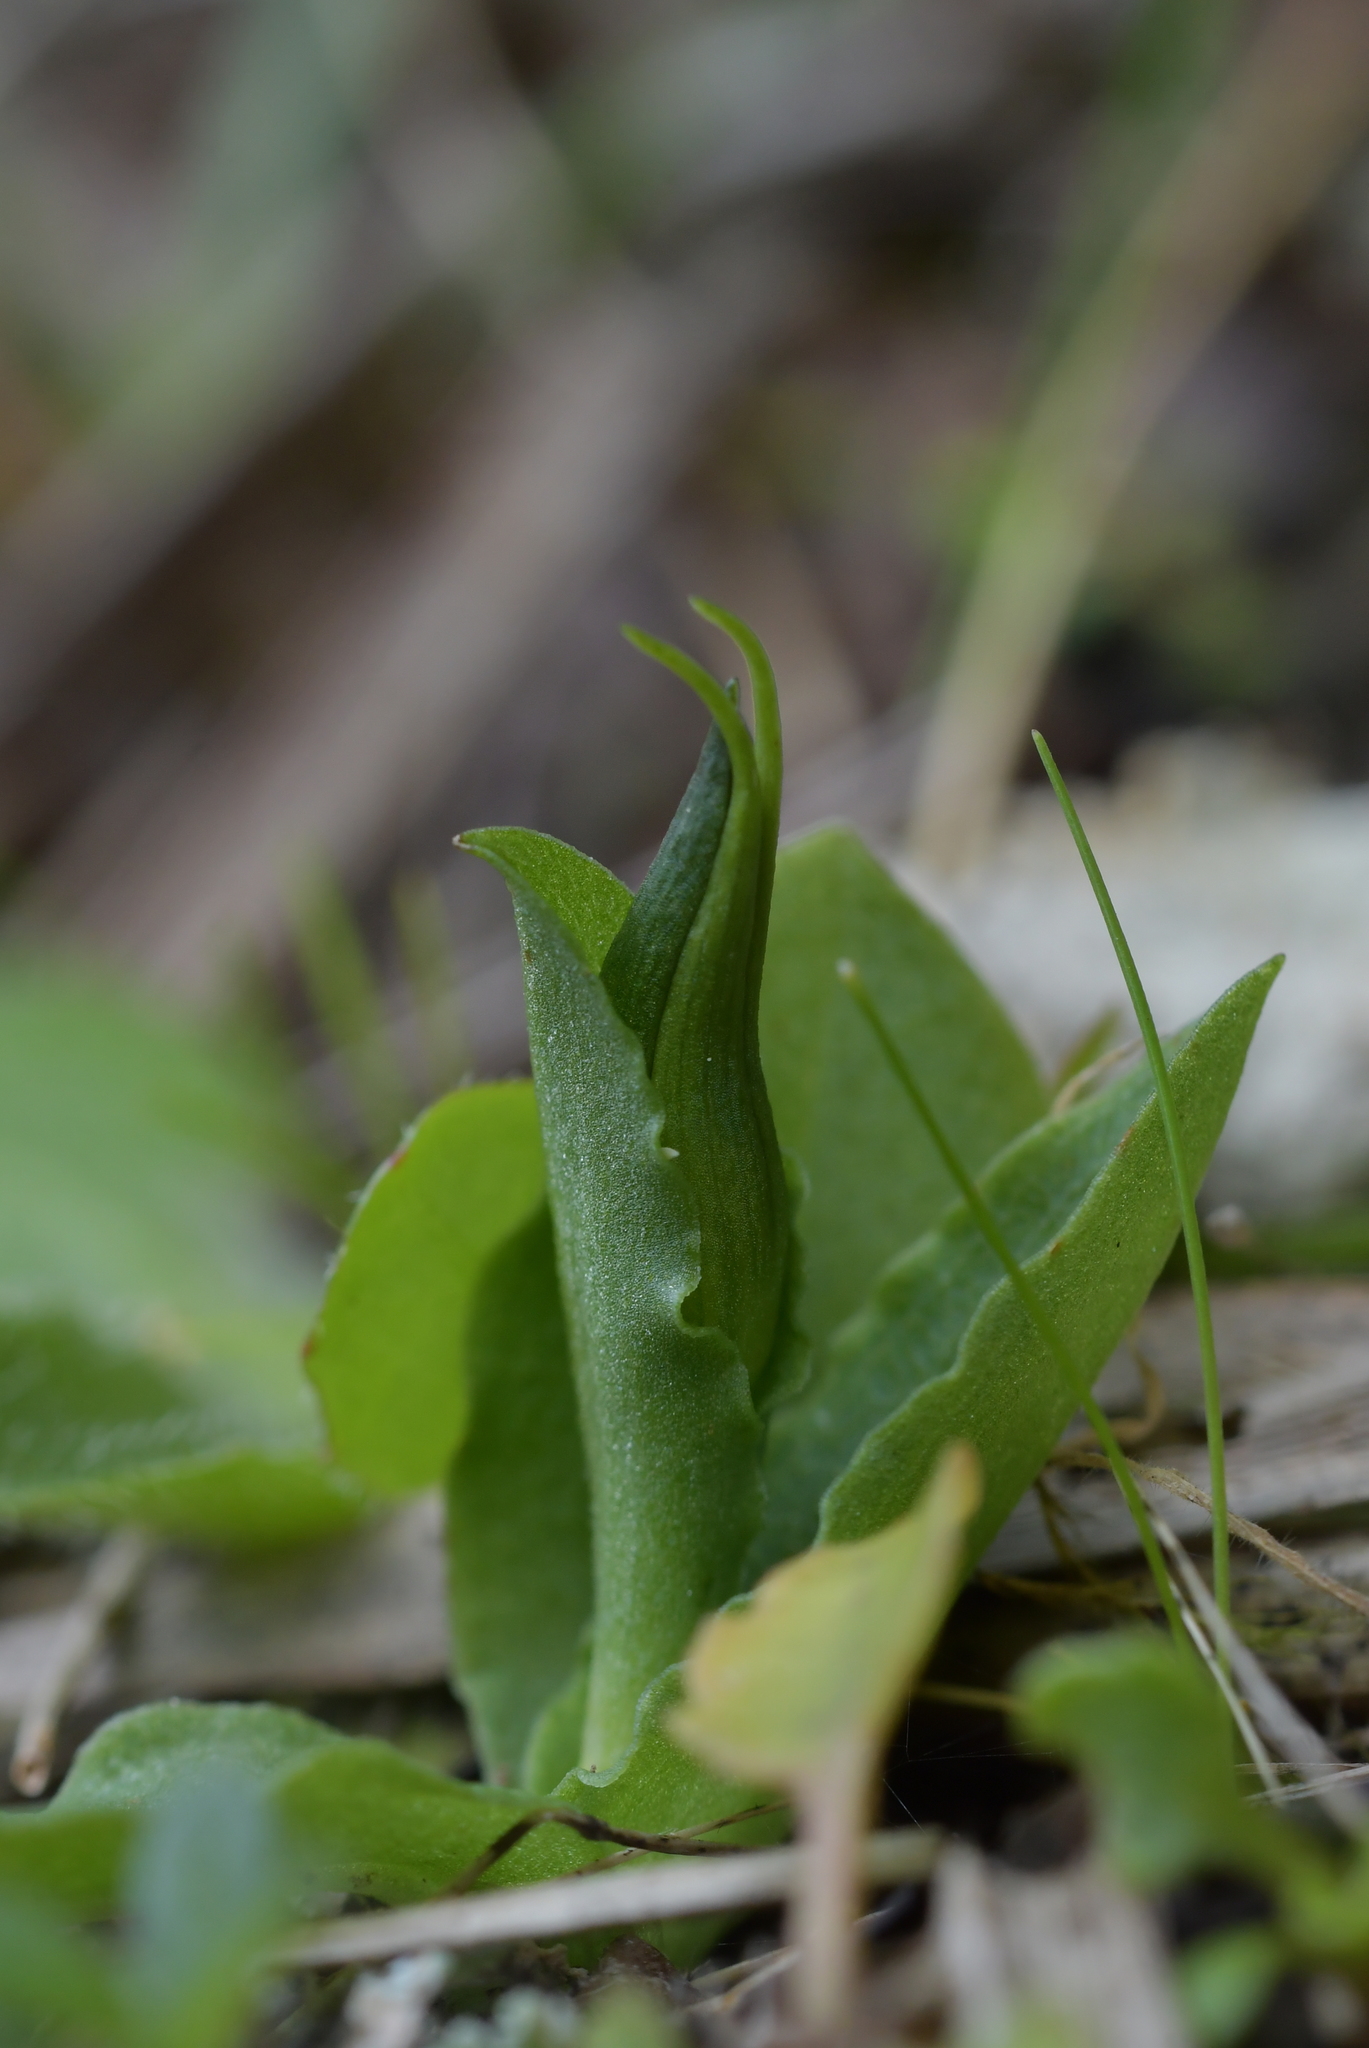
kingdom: Plantae
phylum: Tracheophyta
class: Liliopsida
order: Asparagales
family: Orchidaceae
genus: Pterostylis
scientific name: Pterostylis foliata
